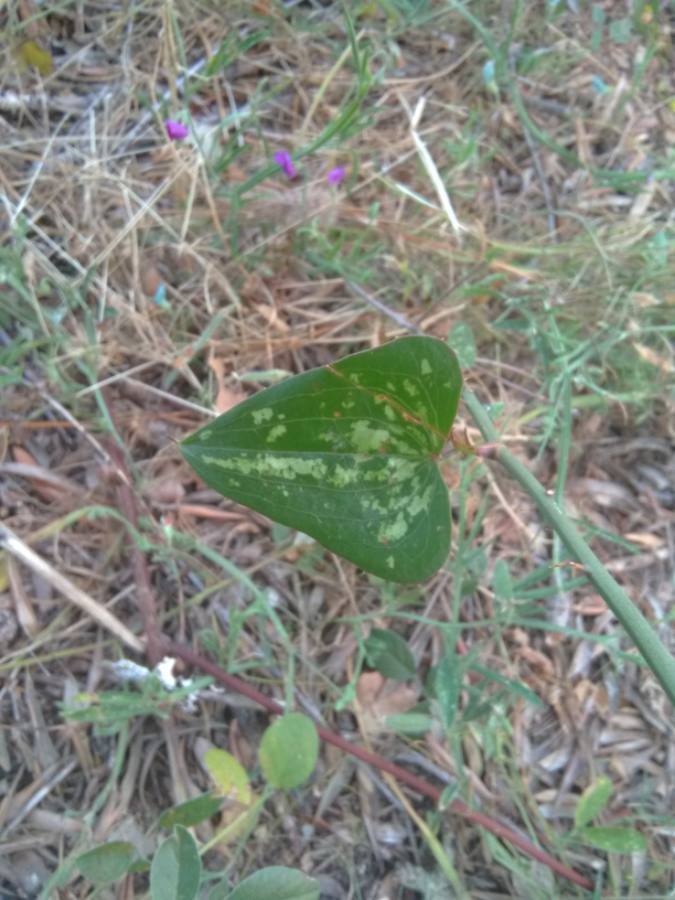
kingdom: Plantae
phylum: Tracheophyta
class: Liliopsida
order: Liliales
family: Smilacaceae
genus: Smilax
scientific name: Smilax aspera
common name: Common smilax
